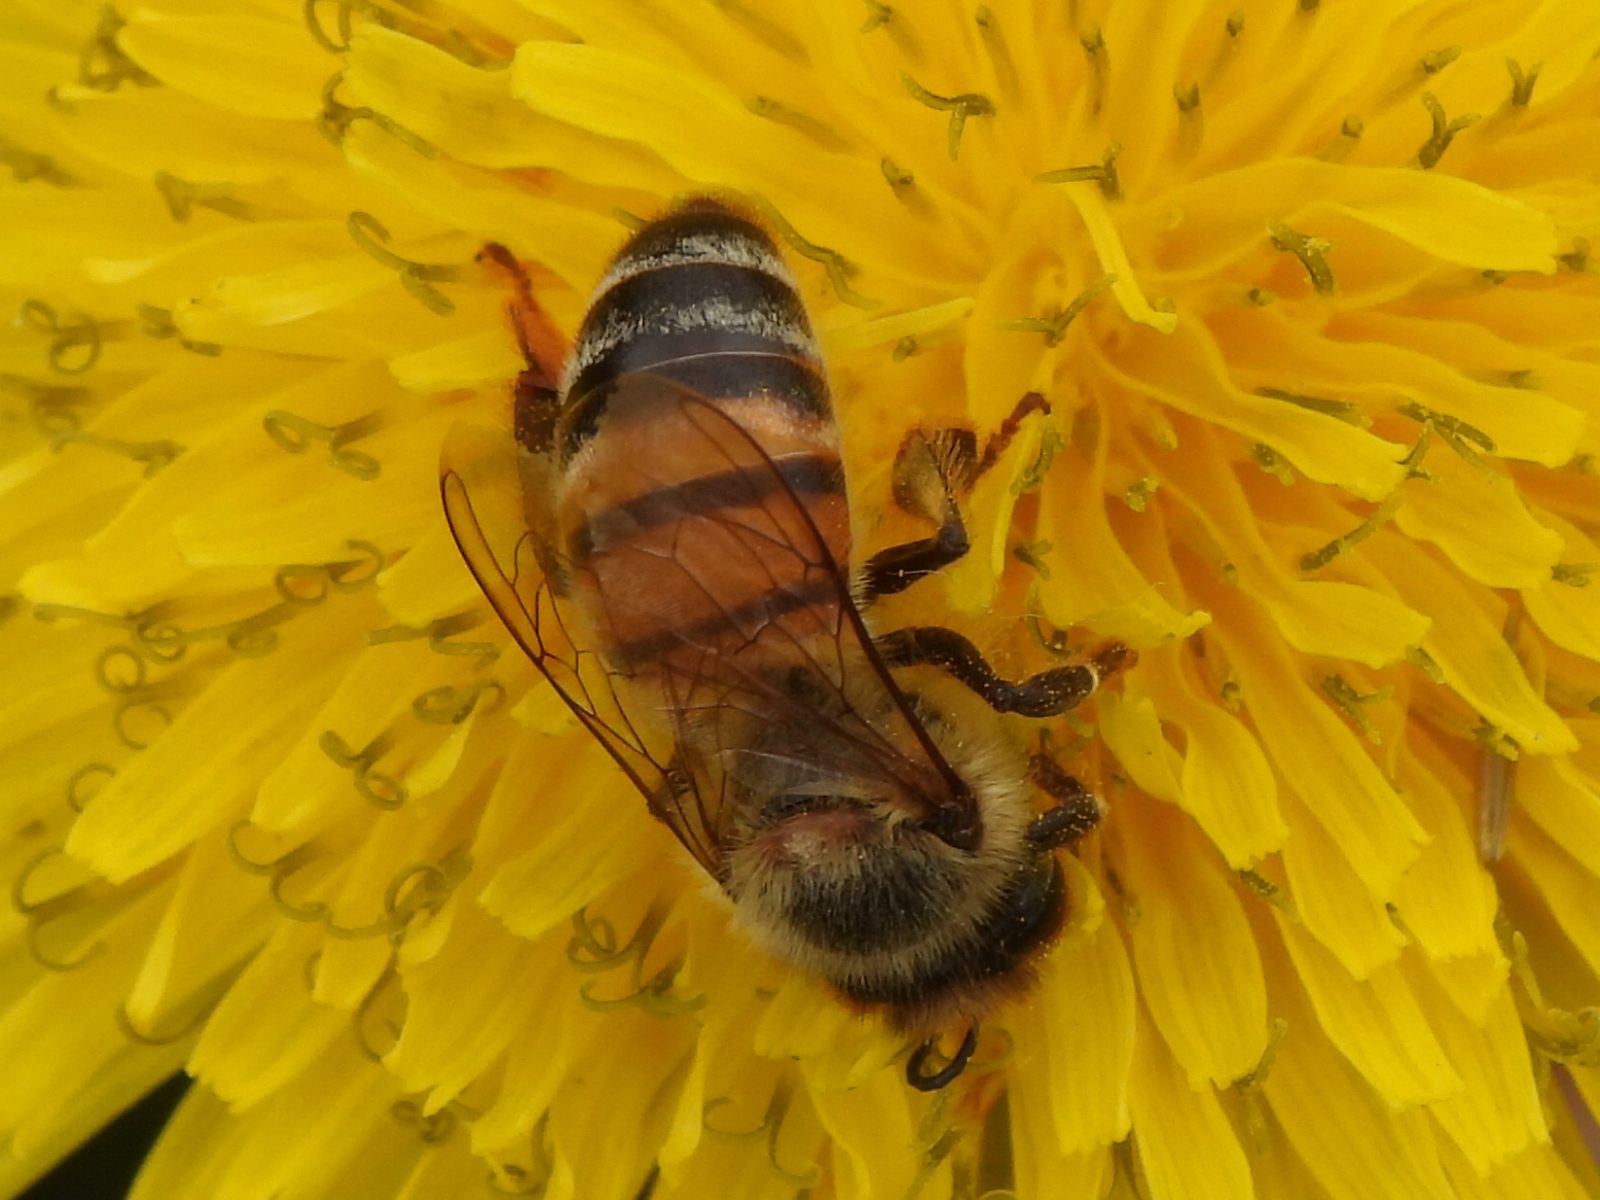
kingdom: Animalia
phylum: Arthropoda
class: Insecta
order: Hymenoptera
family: Apidae
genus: Apis
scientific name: Apis mellifera
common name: Honey bee
